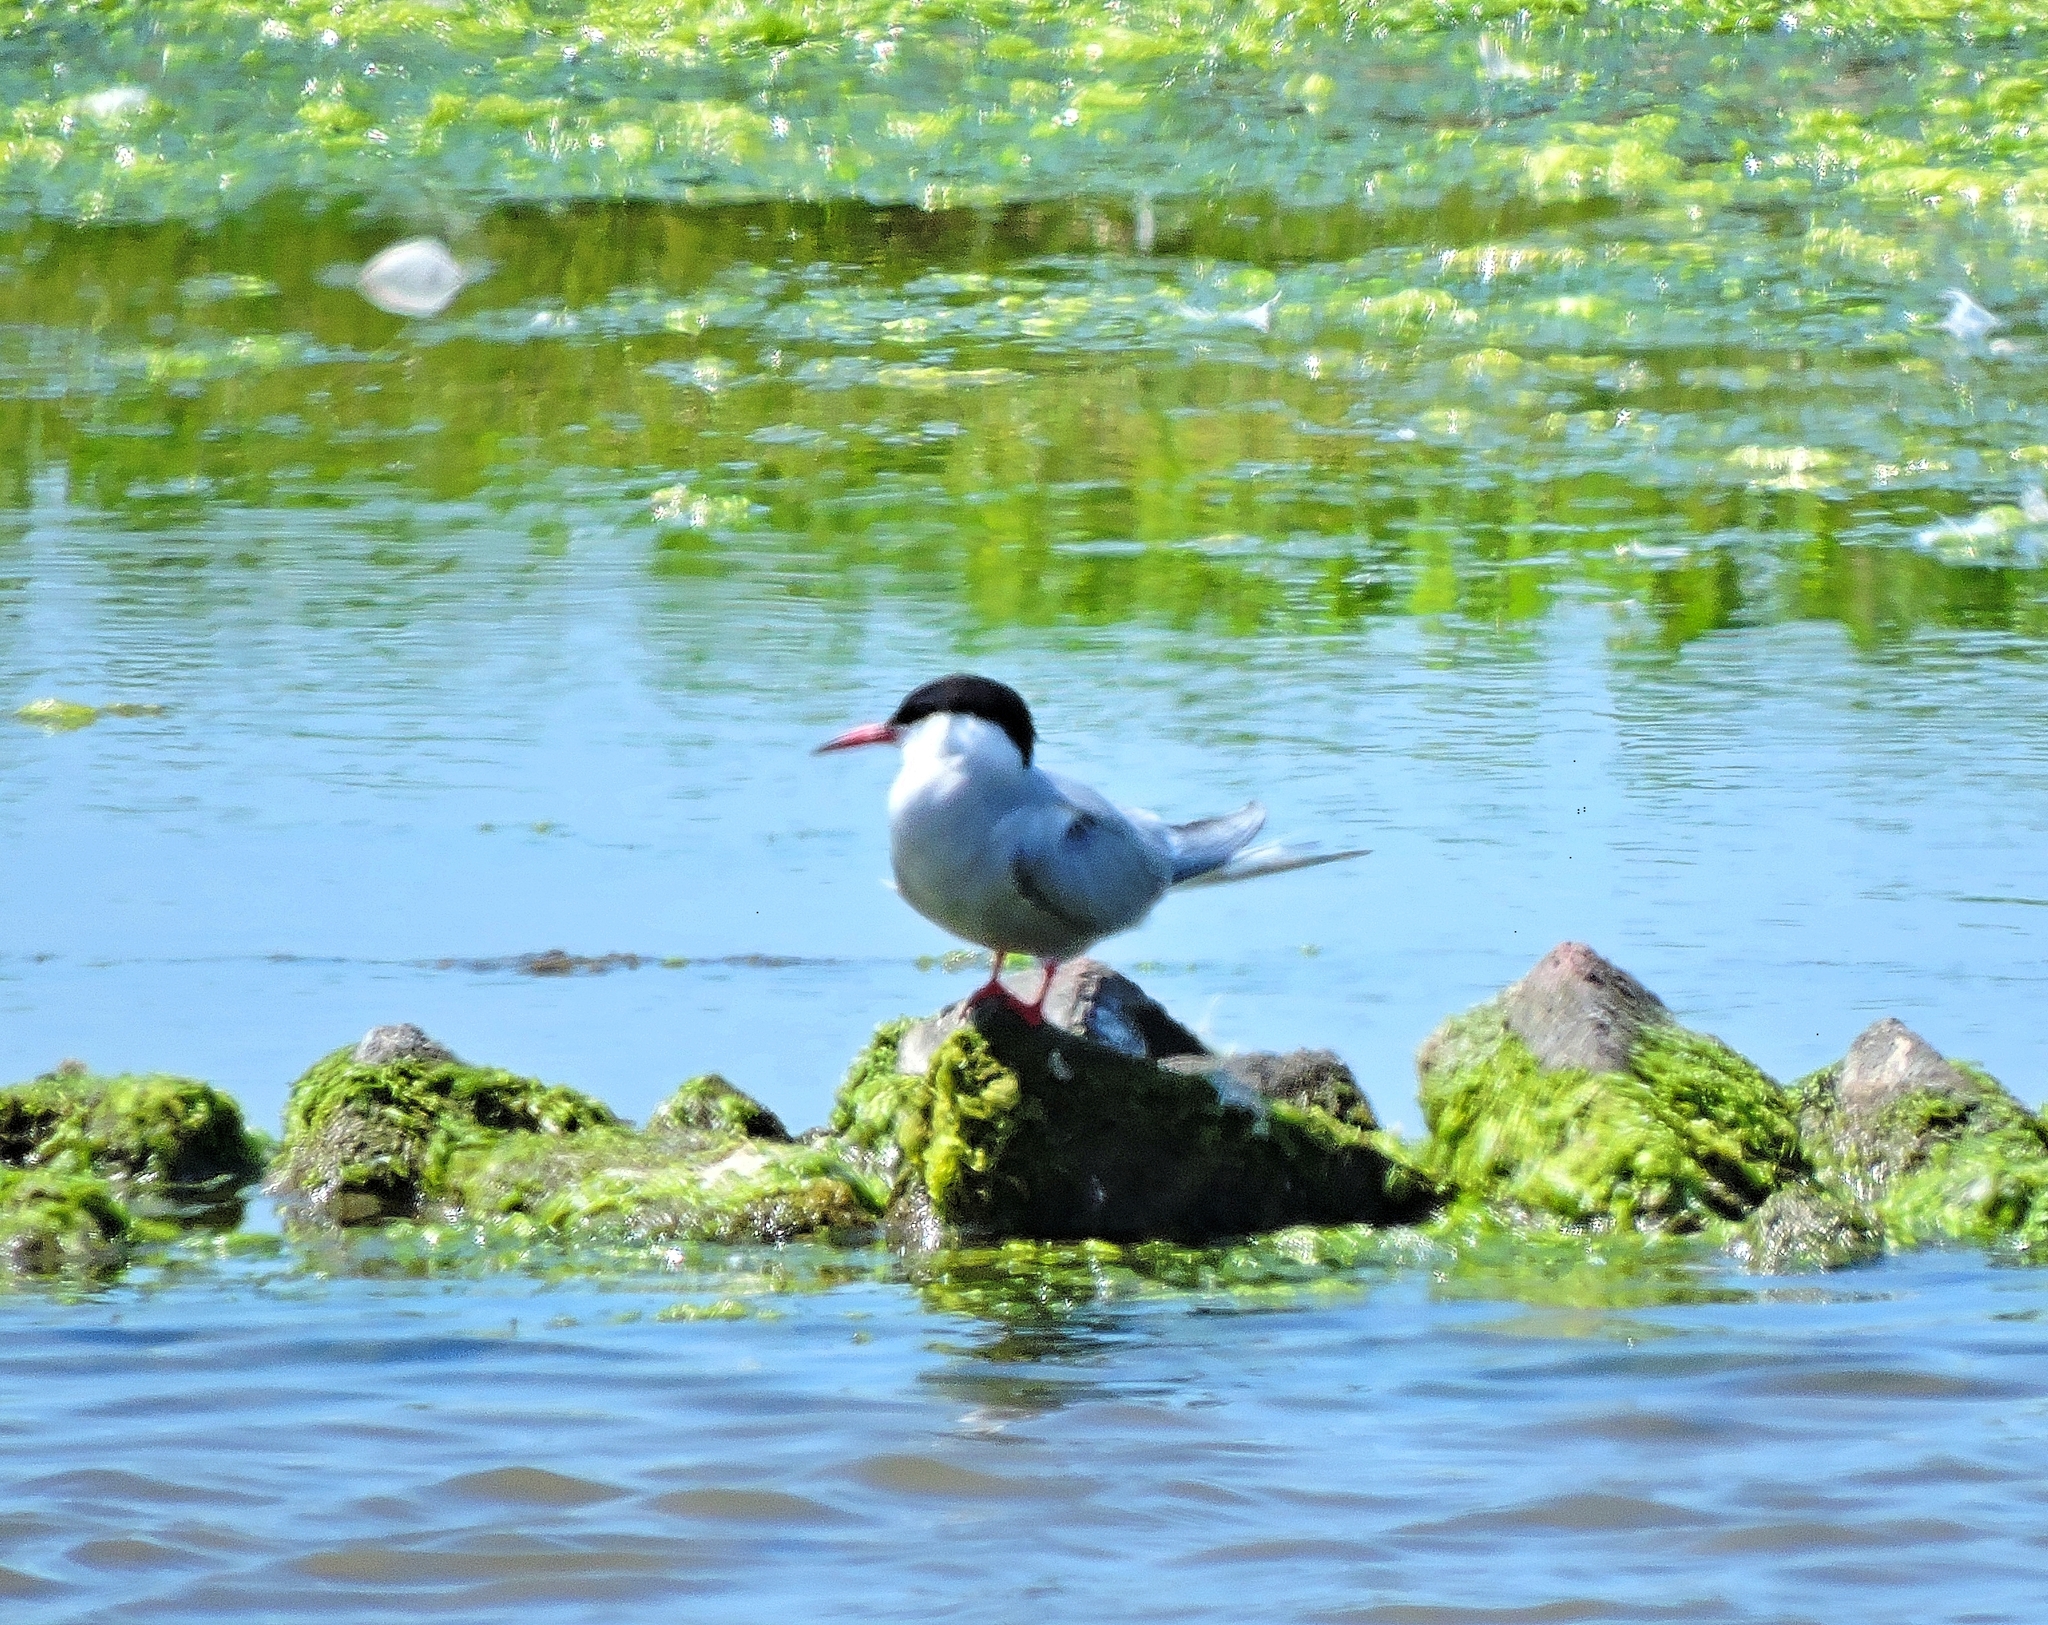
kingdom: Animalia
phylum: Chordata
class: Aves
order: Charadriiformes
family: Laridae
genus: Sterna
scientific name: Sterna hirundo
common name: Common tern
